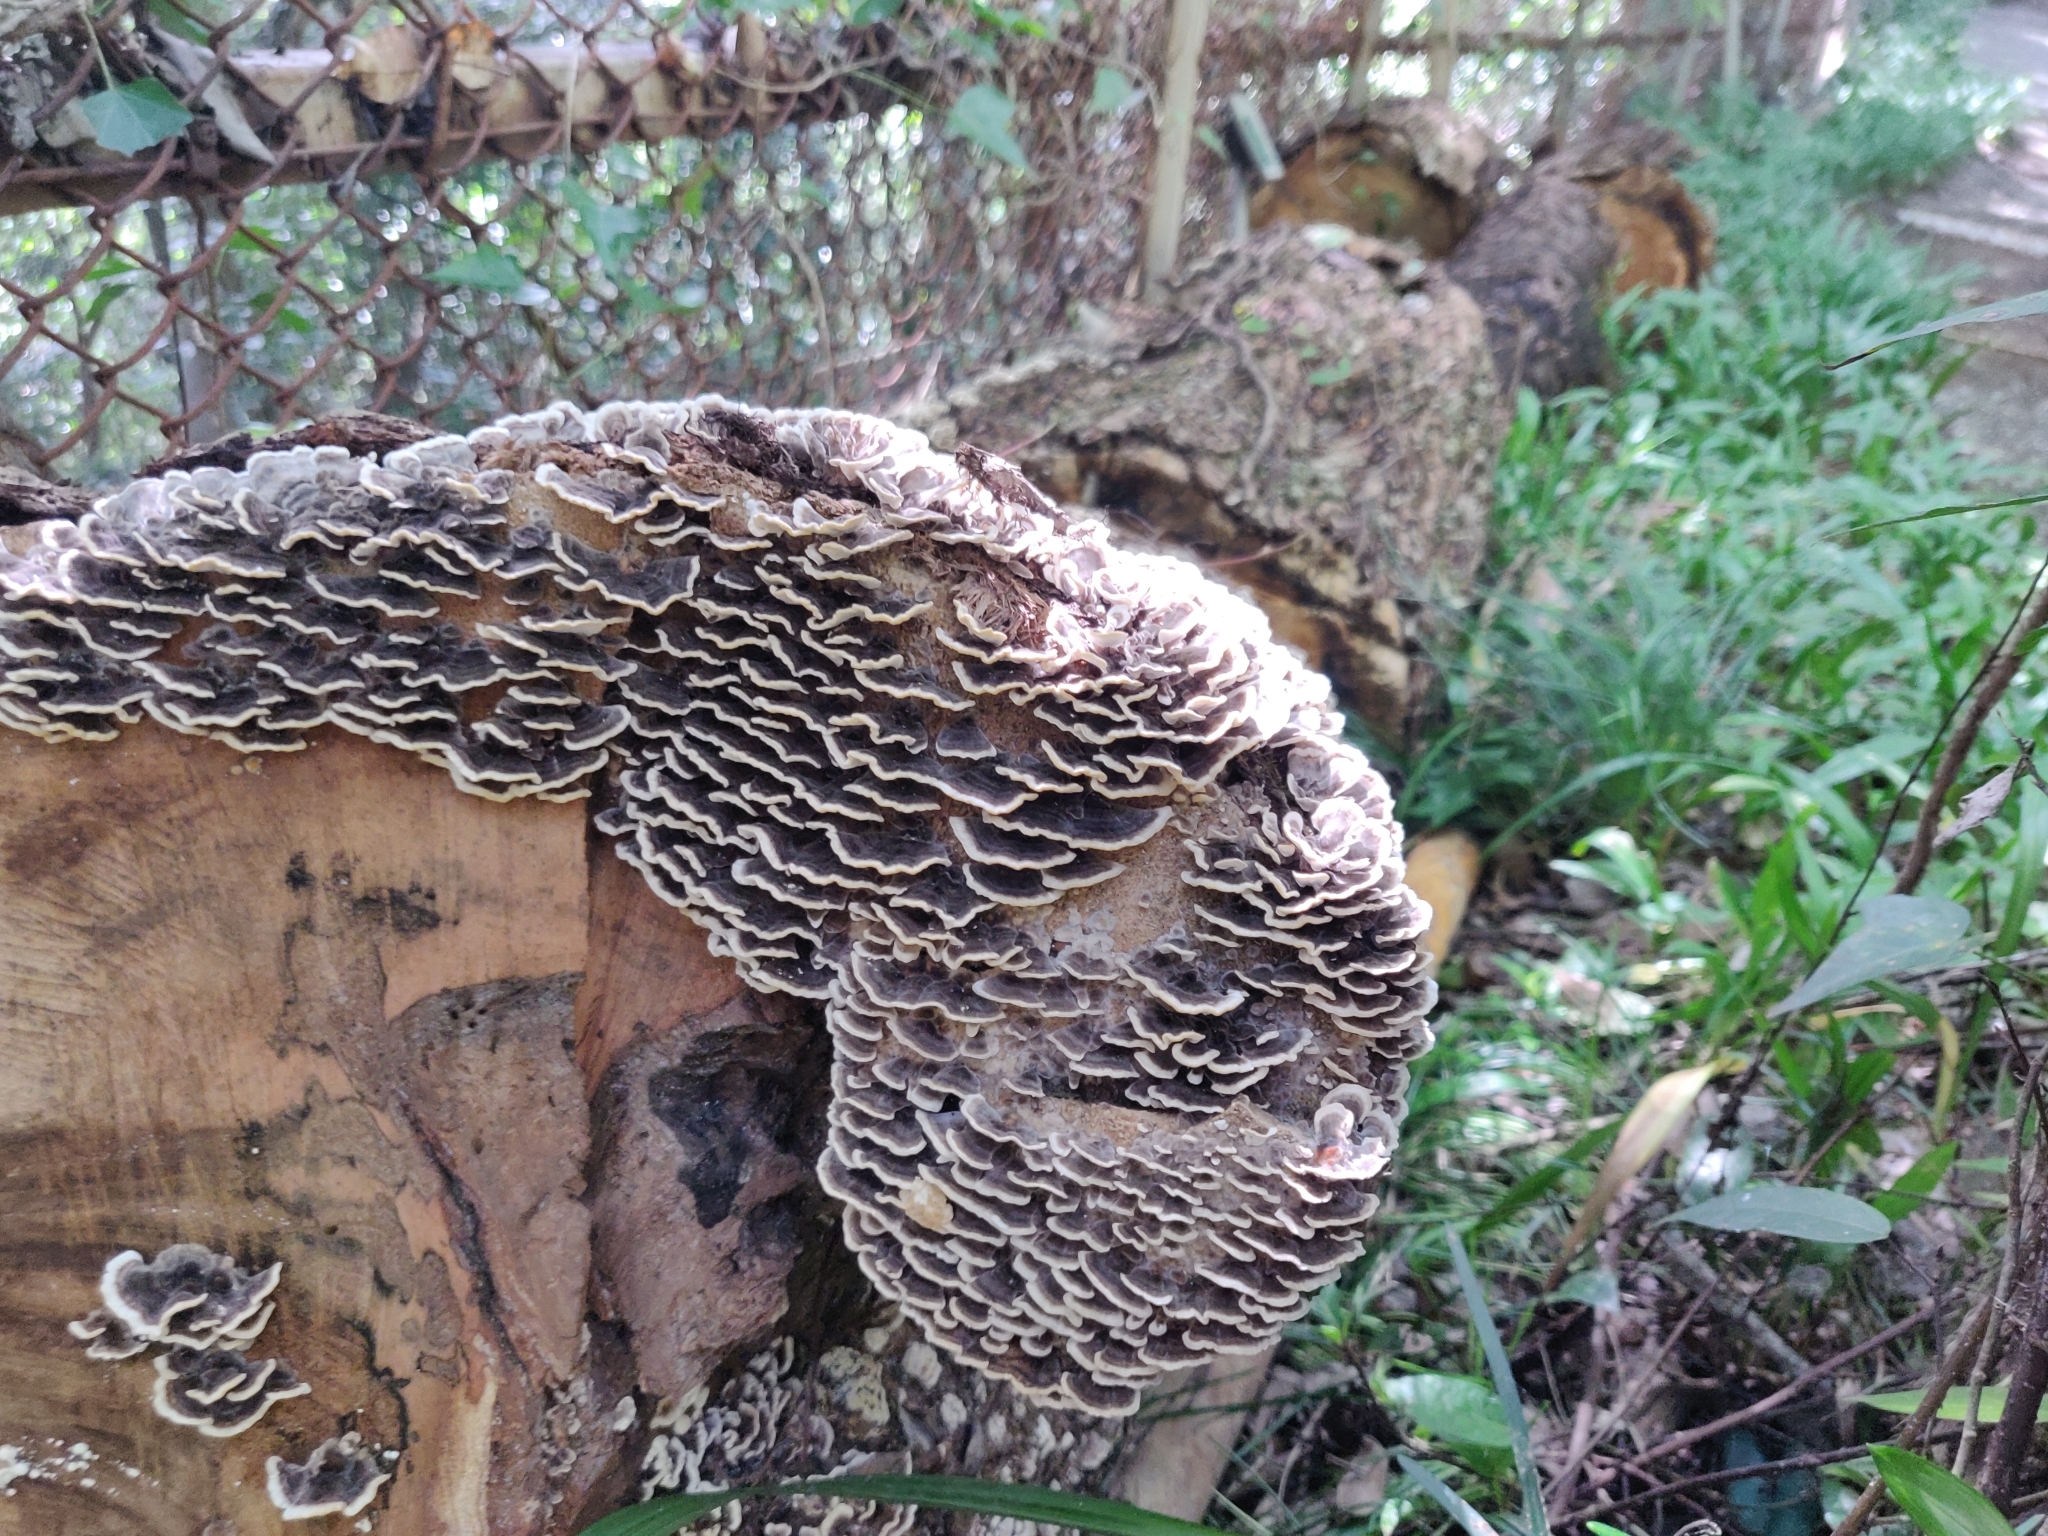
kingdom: Fungi
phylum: Basidiomycota
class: Agaricomycetes
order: Polyporales
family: Polyporaceae
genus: Trametes
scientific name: Trametes versicolor
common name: Turkeytail
